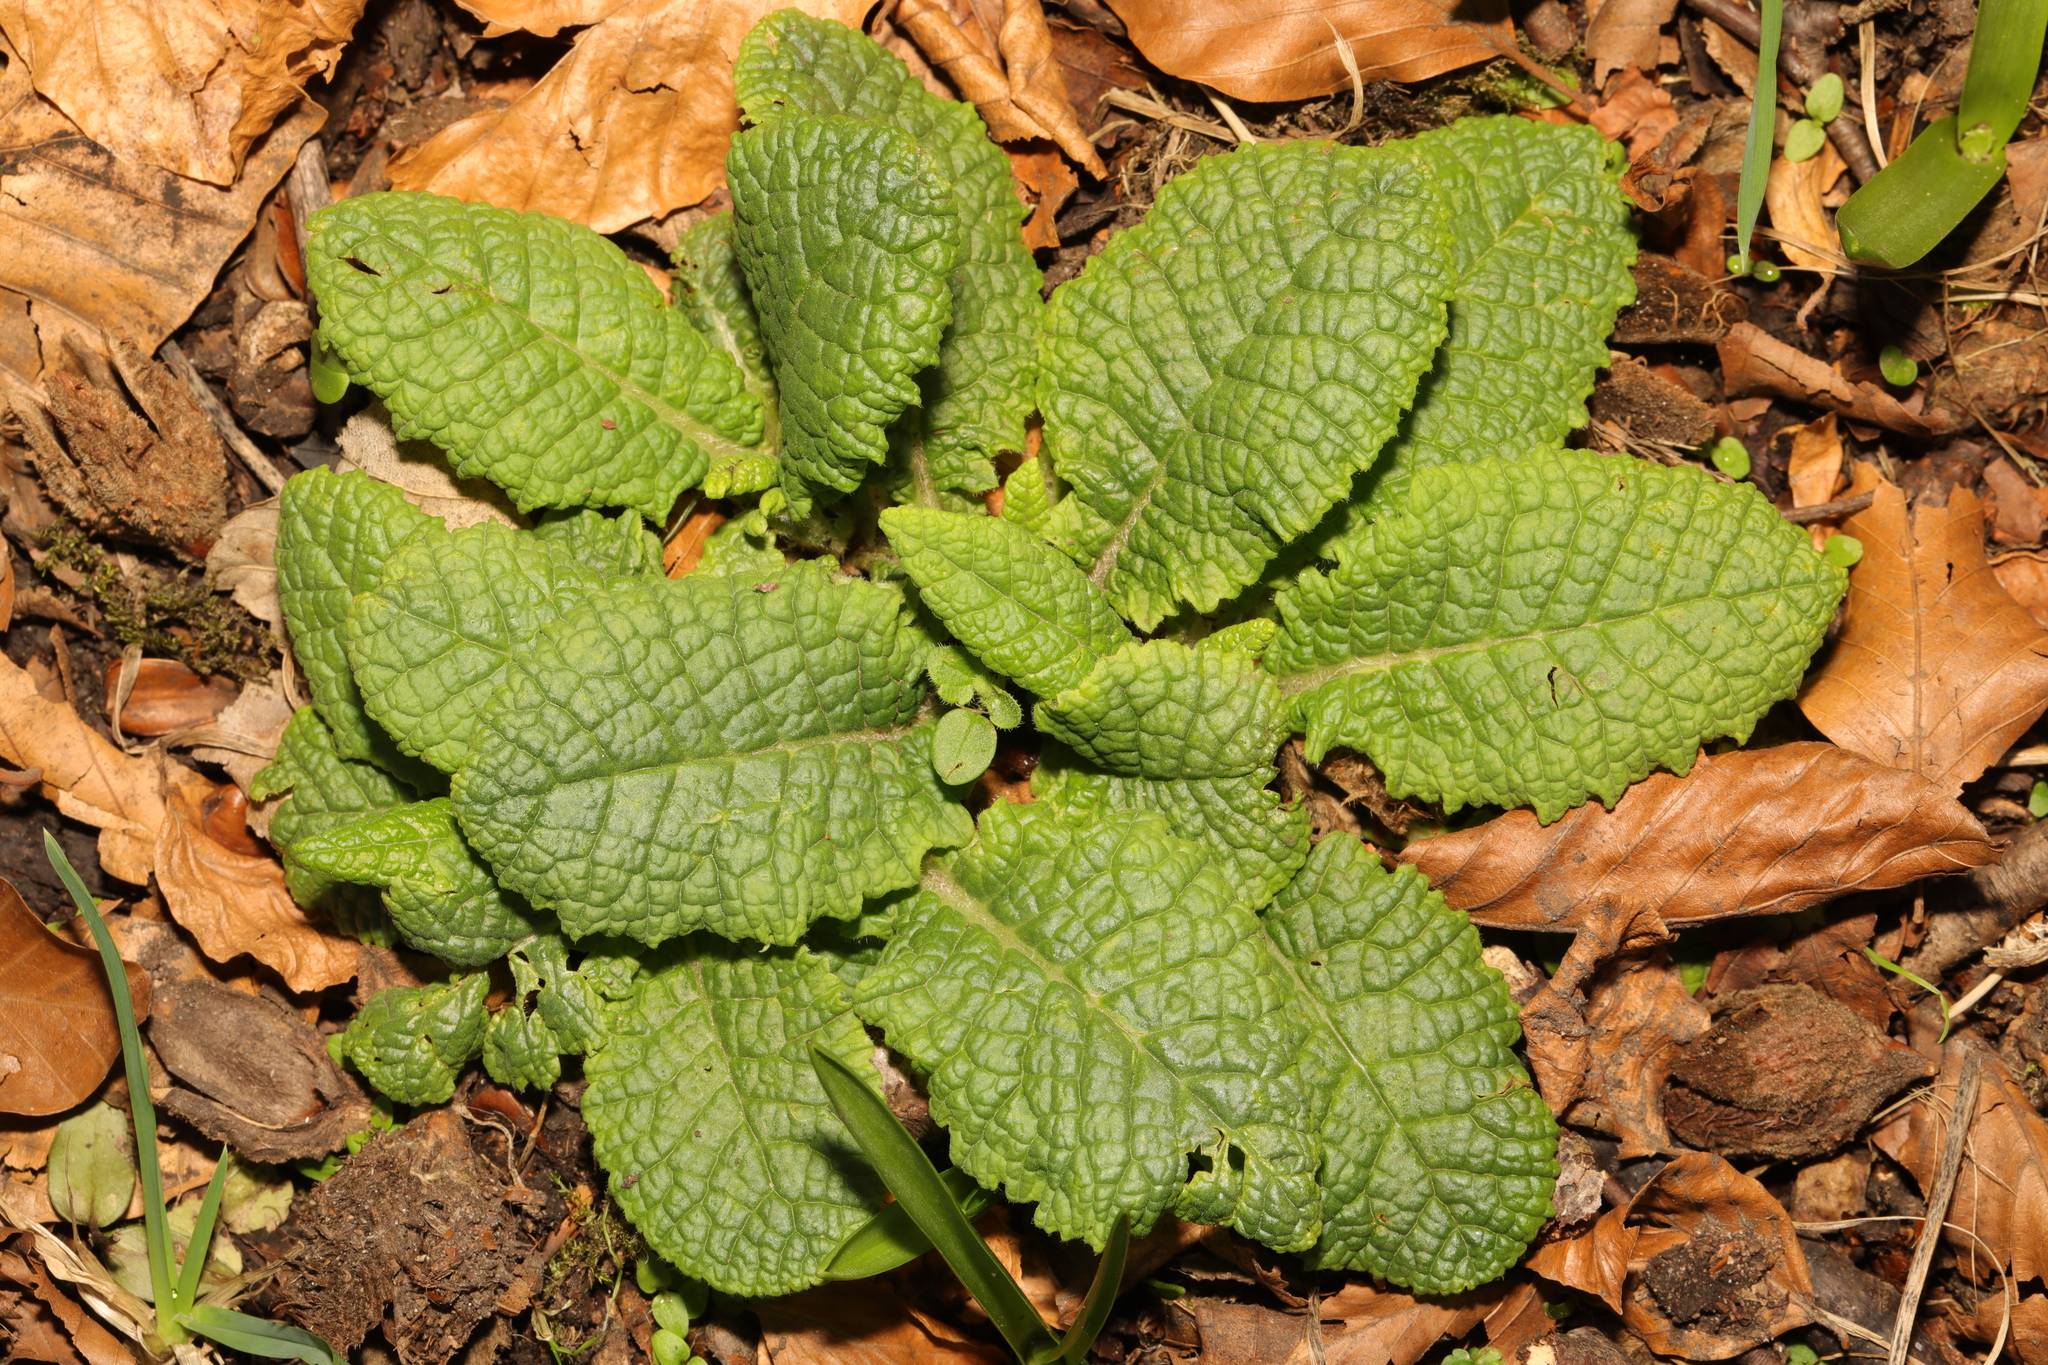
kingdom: Plantae
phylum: Tracheophyta
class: Magnoliopsida
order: Ericales
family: Primulaceae
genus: Primula
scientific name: Primula vulgaris
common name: Primrose
